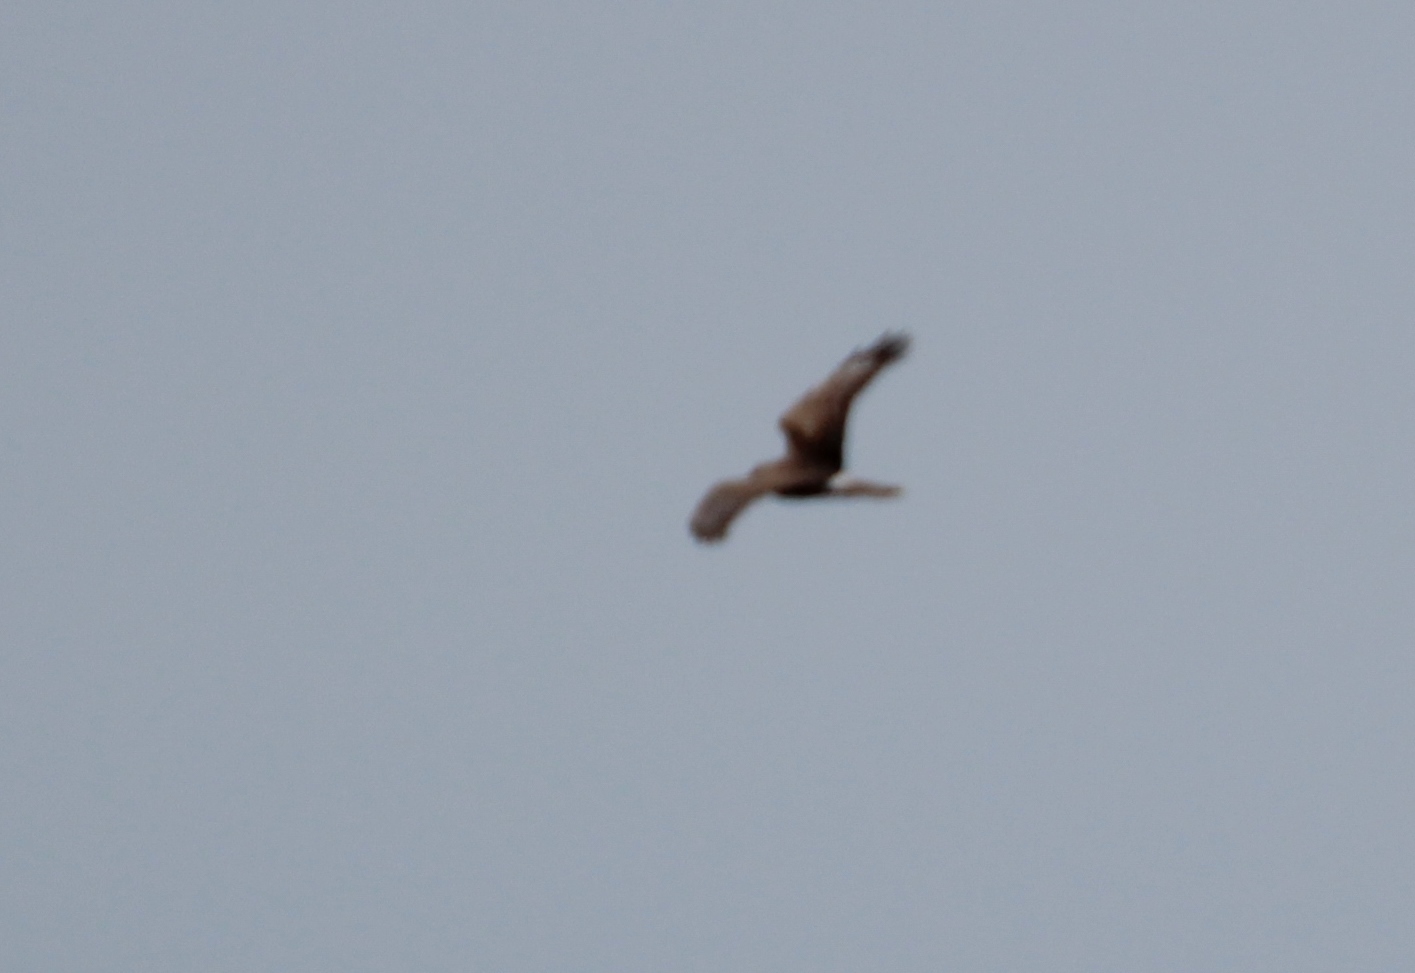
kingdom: Animalia
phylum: Chordata
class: Aves
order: Accipitriformes
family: Accipitridae
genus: Circus
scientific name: Circus cyaneus
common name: Hen harrier
